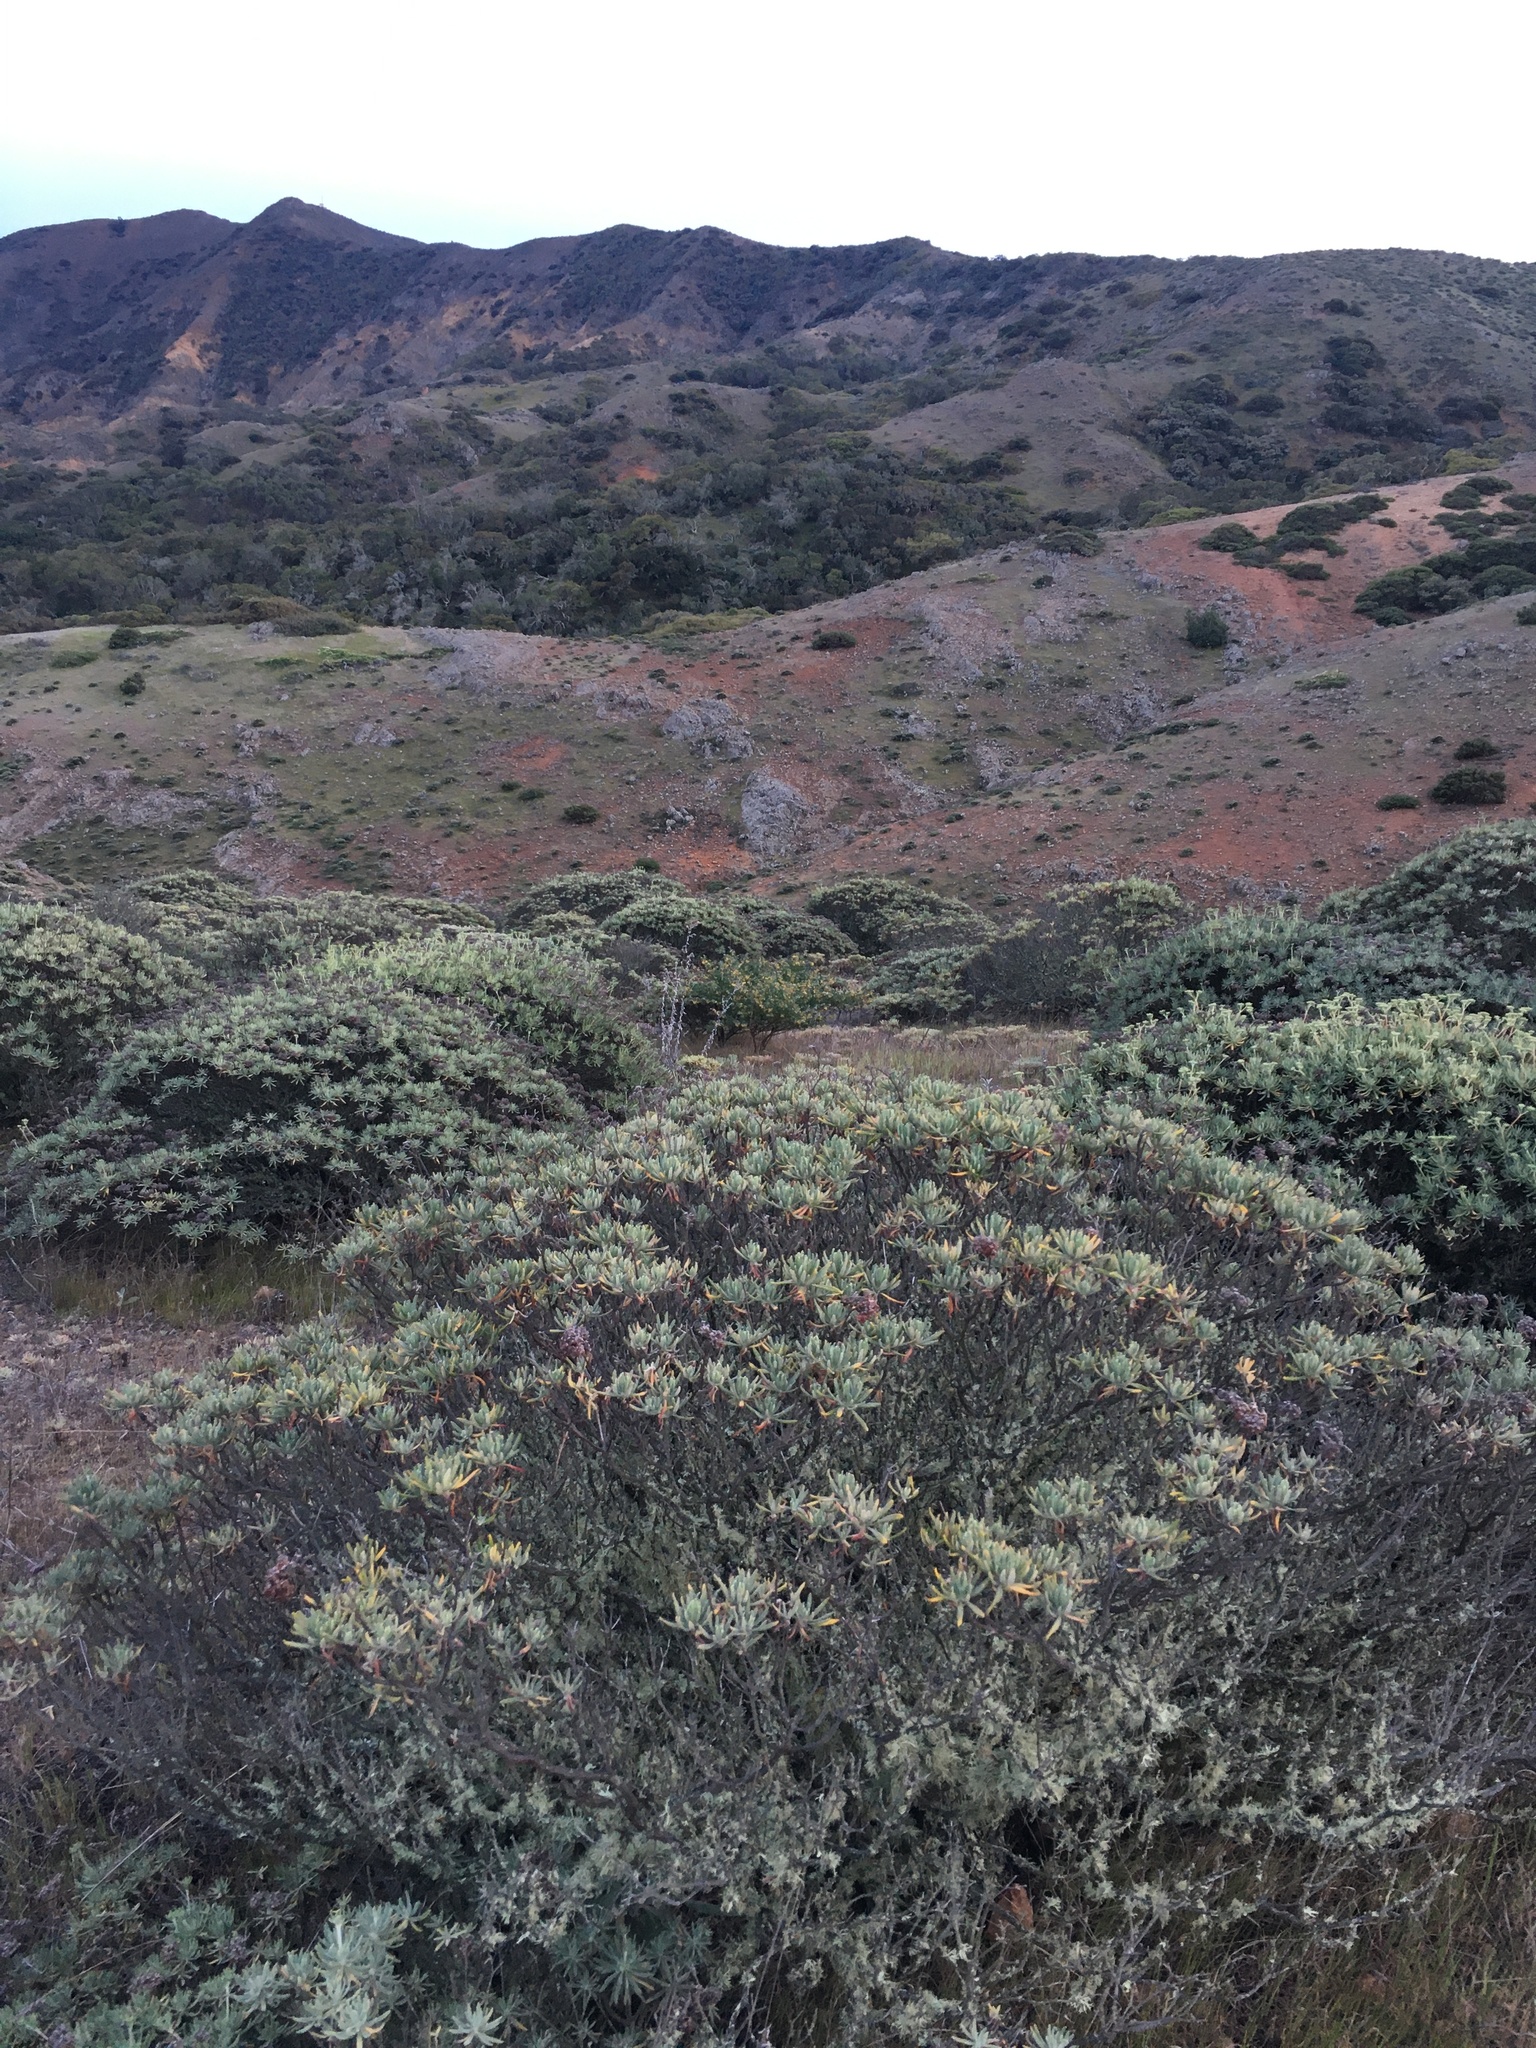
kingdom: Plantae
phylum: Tracheophyta
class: Magnoliopsida
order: Caryophyllales
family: Polygonaceae
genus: Eriogonum
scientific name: Eriogonum arborescens
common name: Island buckwheat
